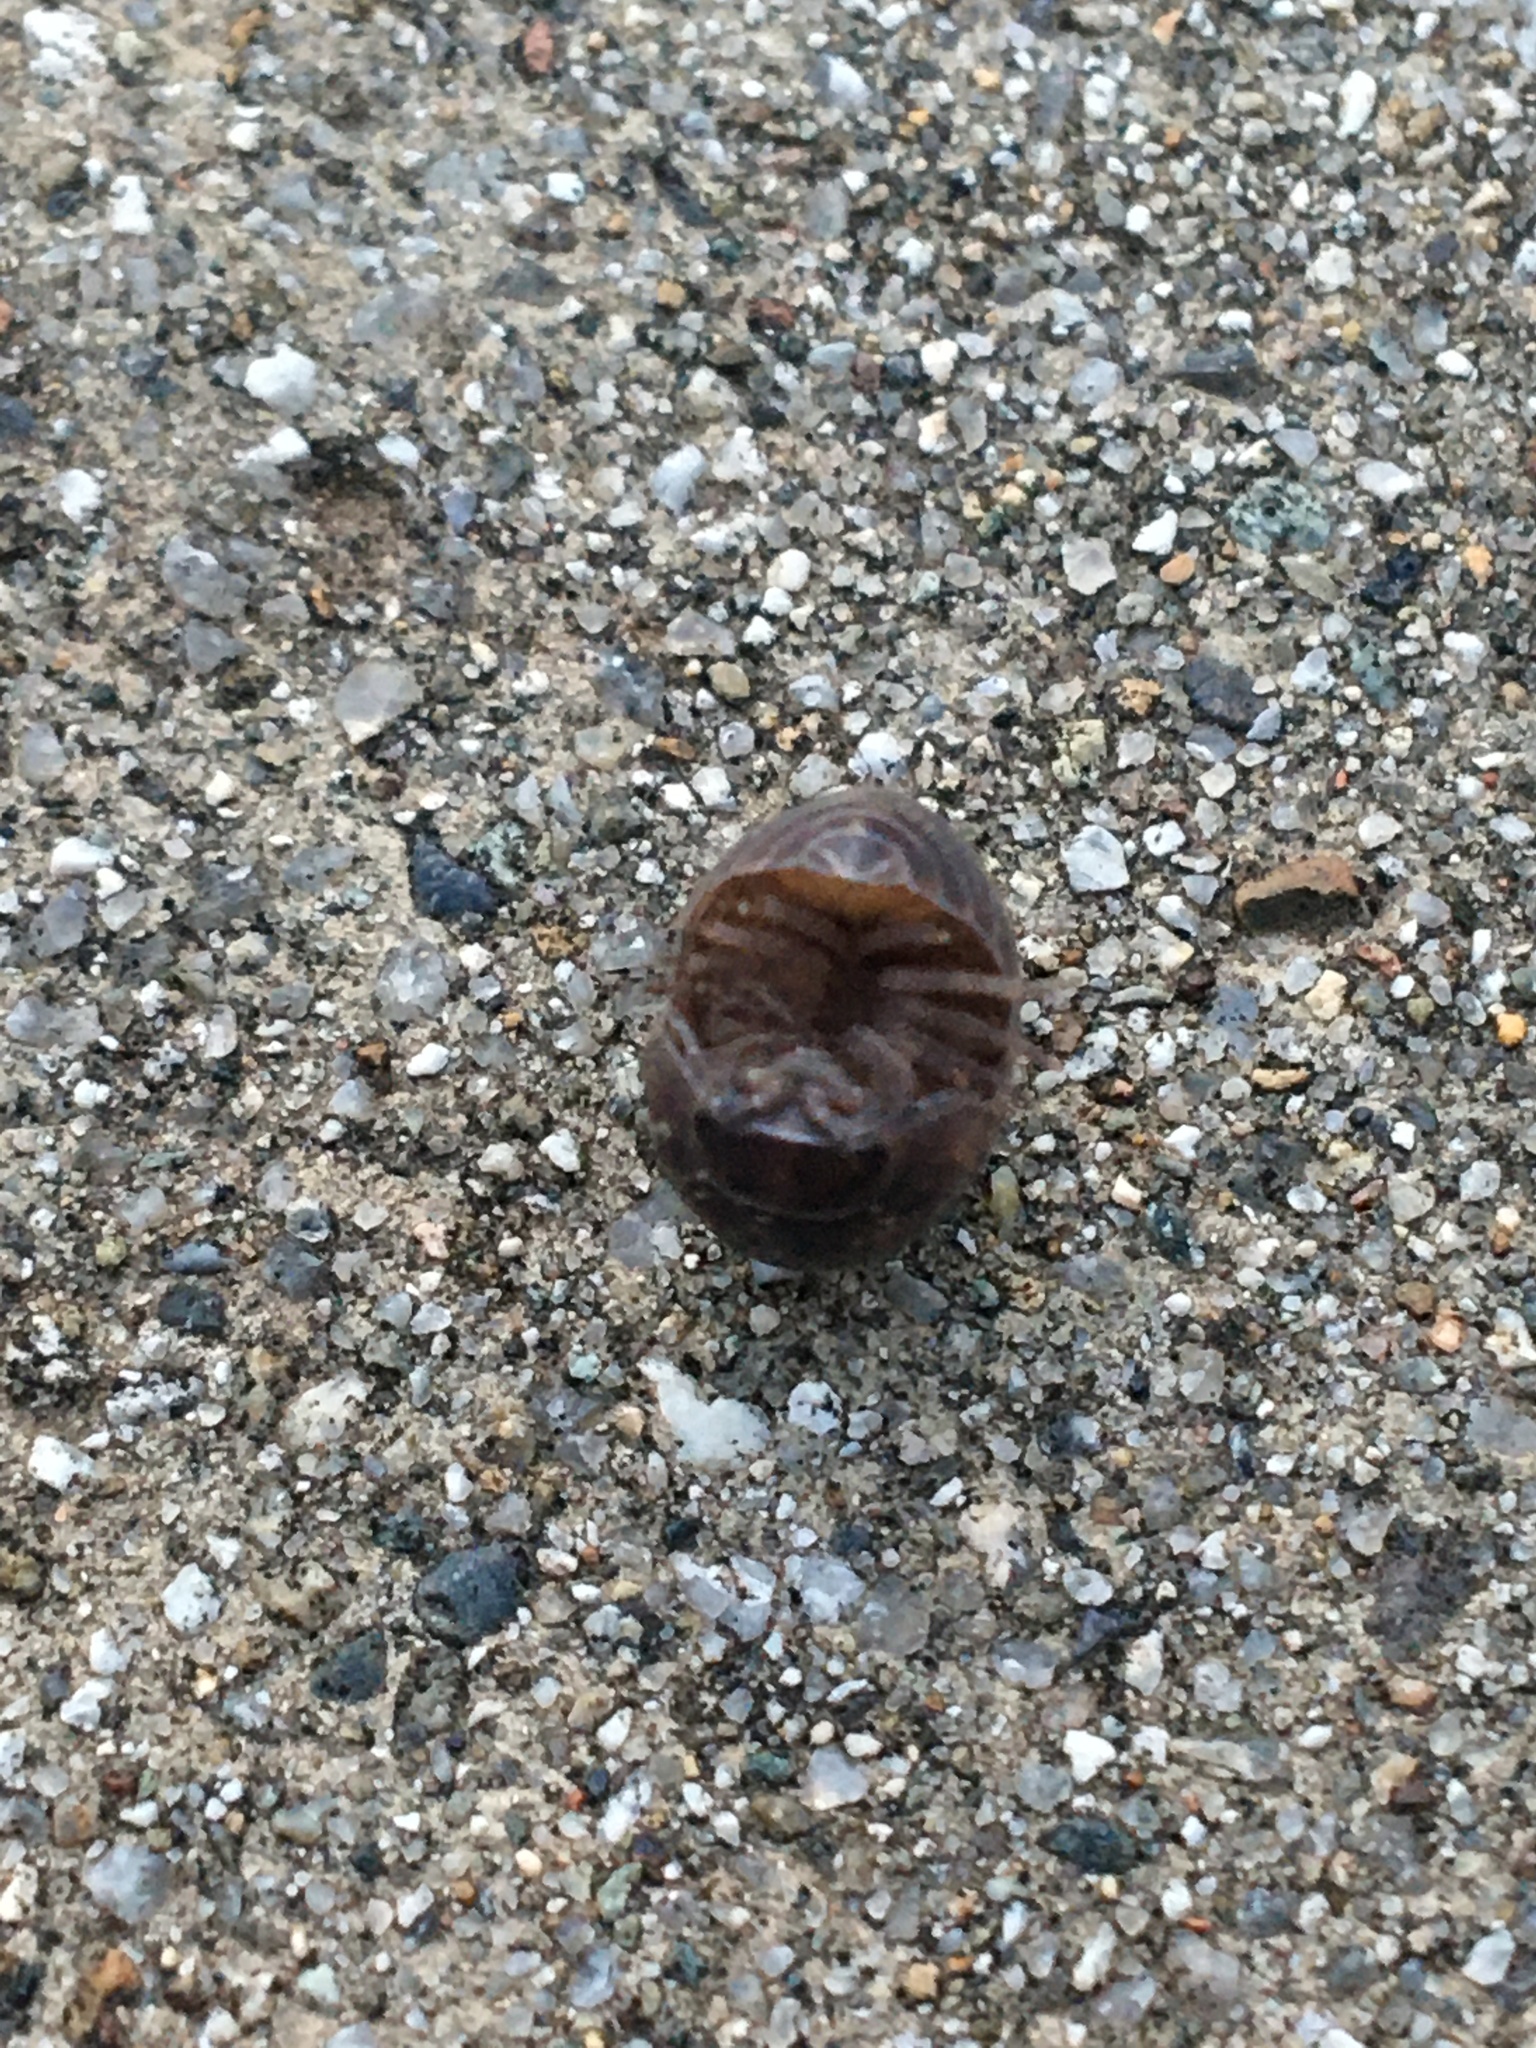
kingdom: Animalia
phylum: Arthropoda
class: Malacostraca
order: Isopoda
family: Armadillidiidae
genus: Armadillidium
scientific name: Armadillidium vulgare
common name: Common pill woodlouse
